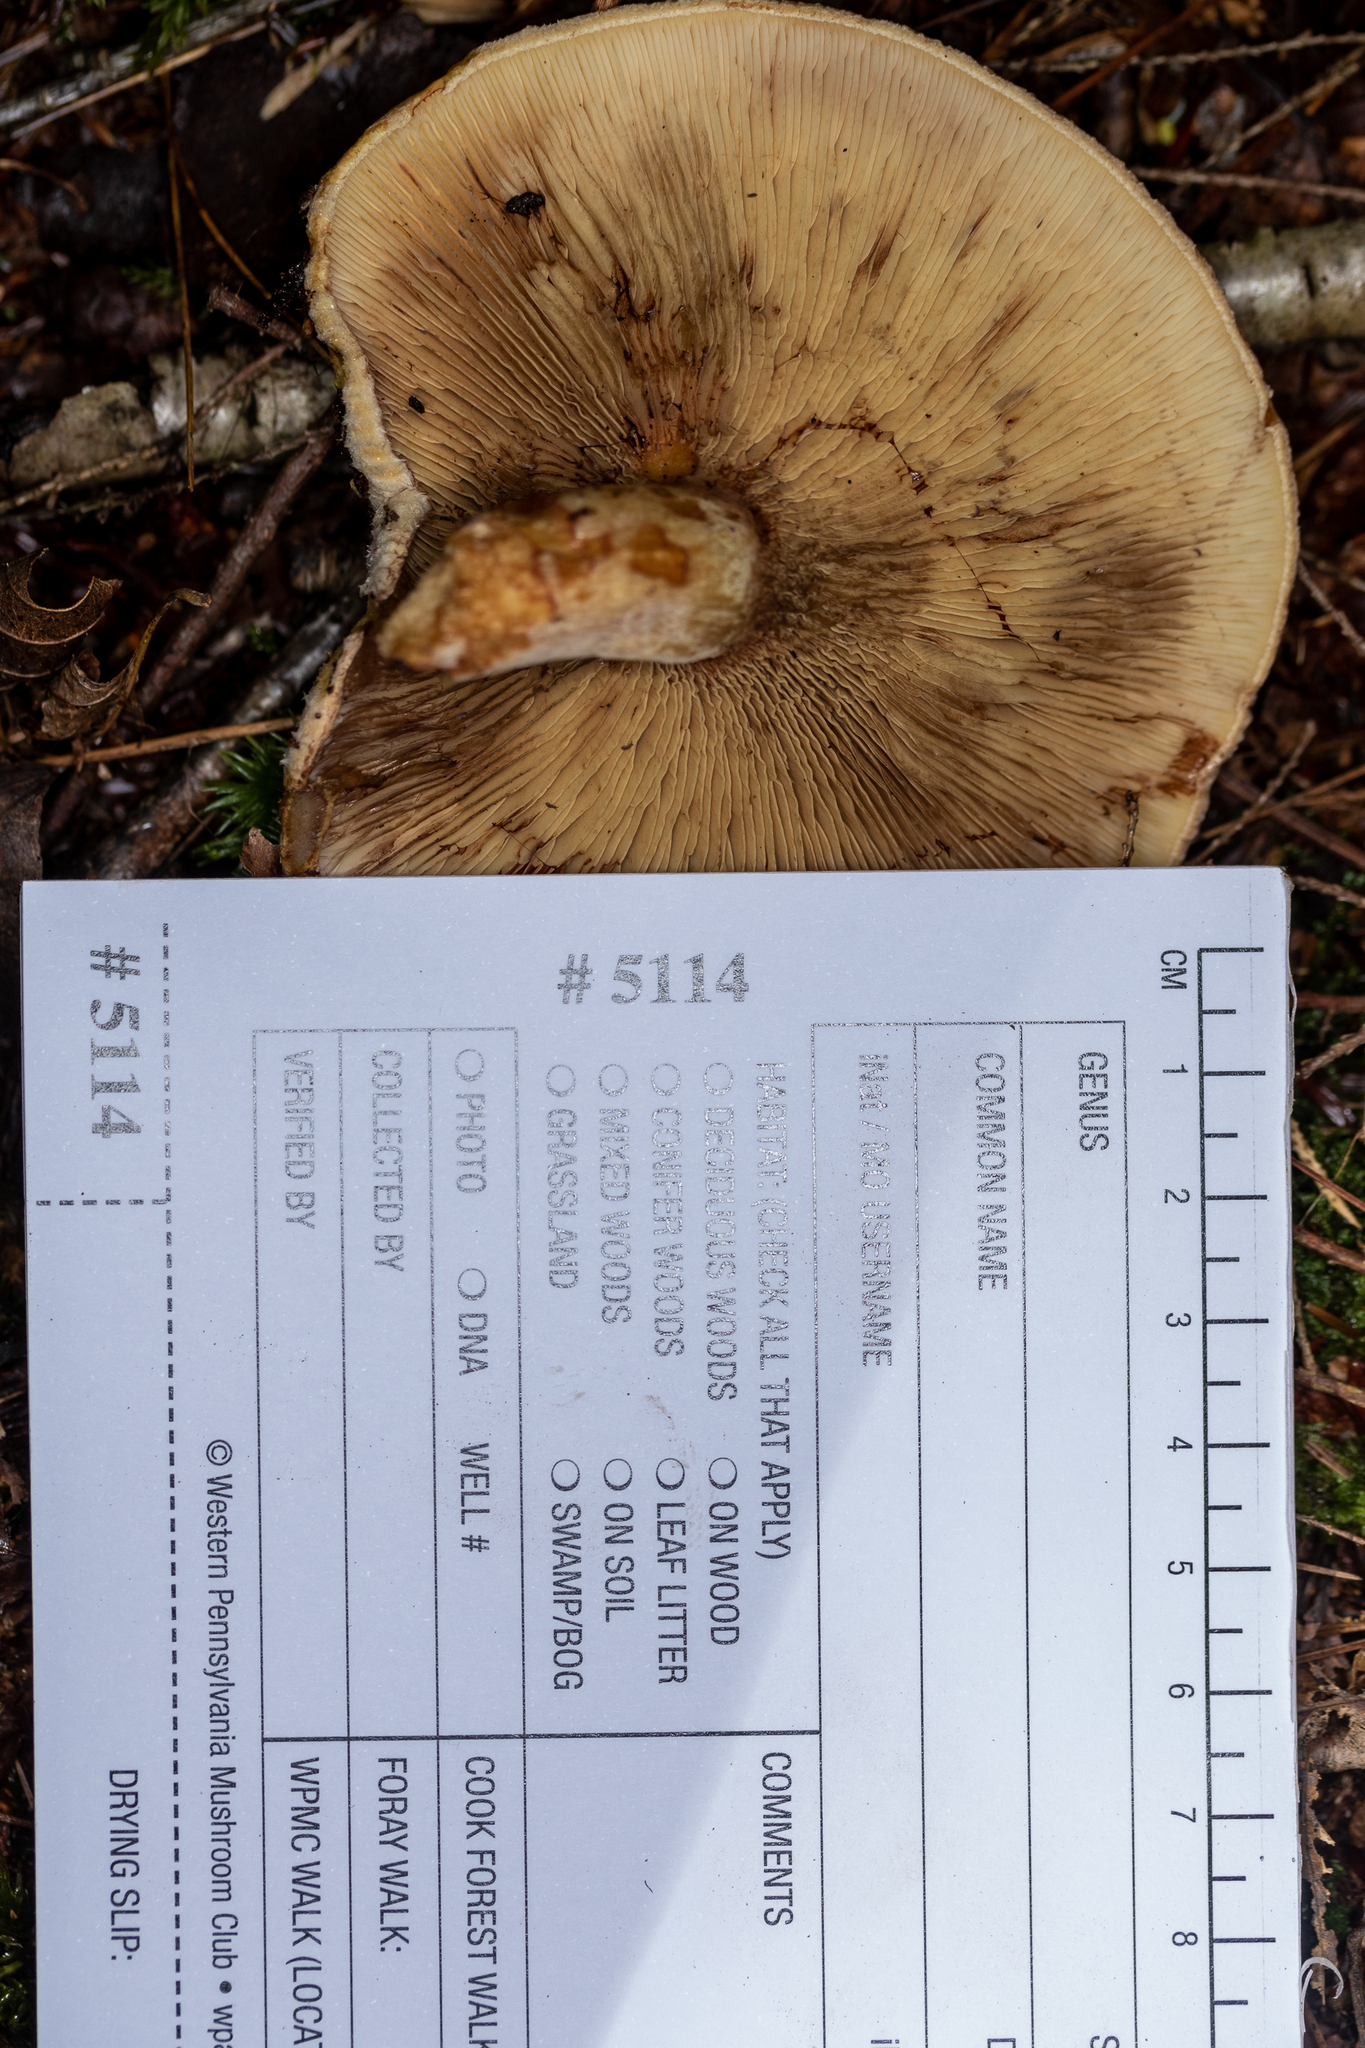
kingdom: Fungi
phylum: Basidiomycota
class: Agaricomycetes
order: Boletales
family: Paxillaceae
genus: Paxillus
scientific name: Paxillus involutus
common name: Brown roll rim
